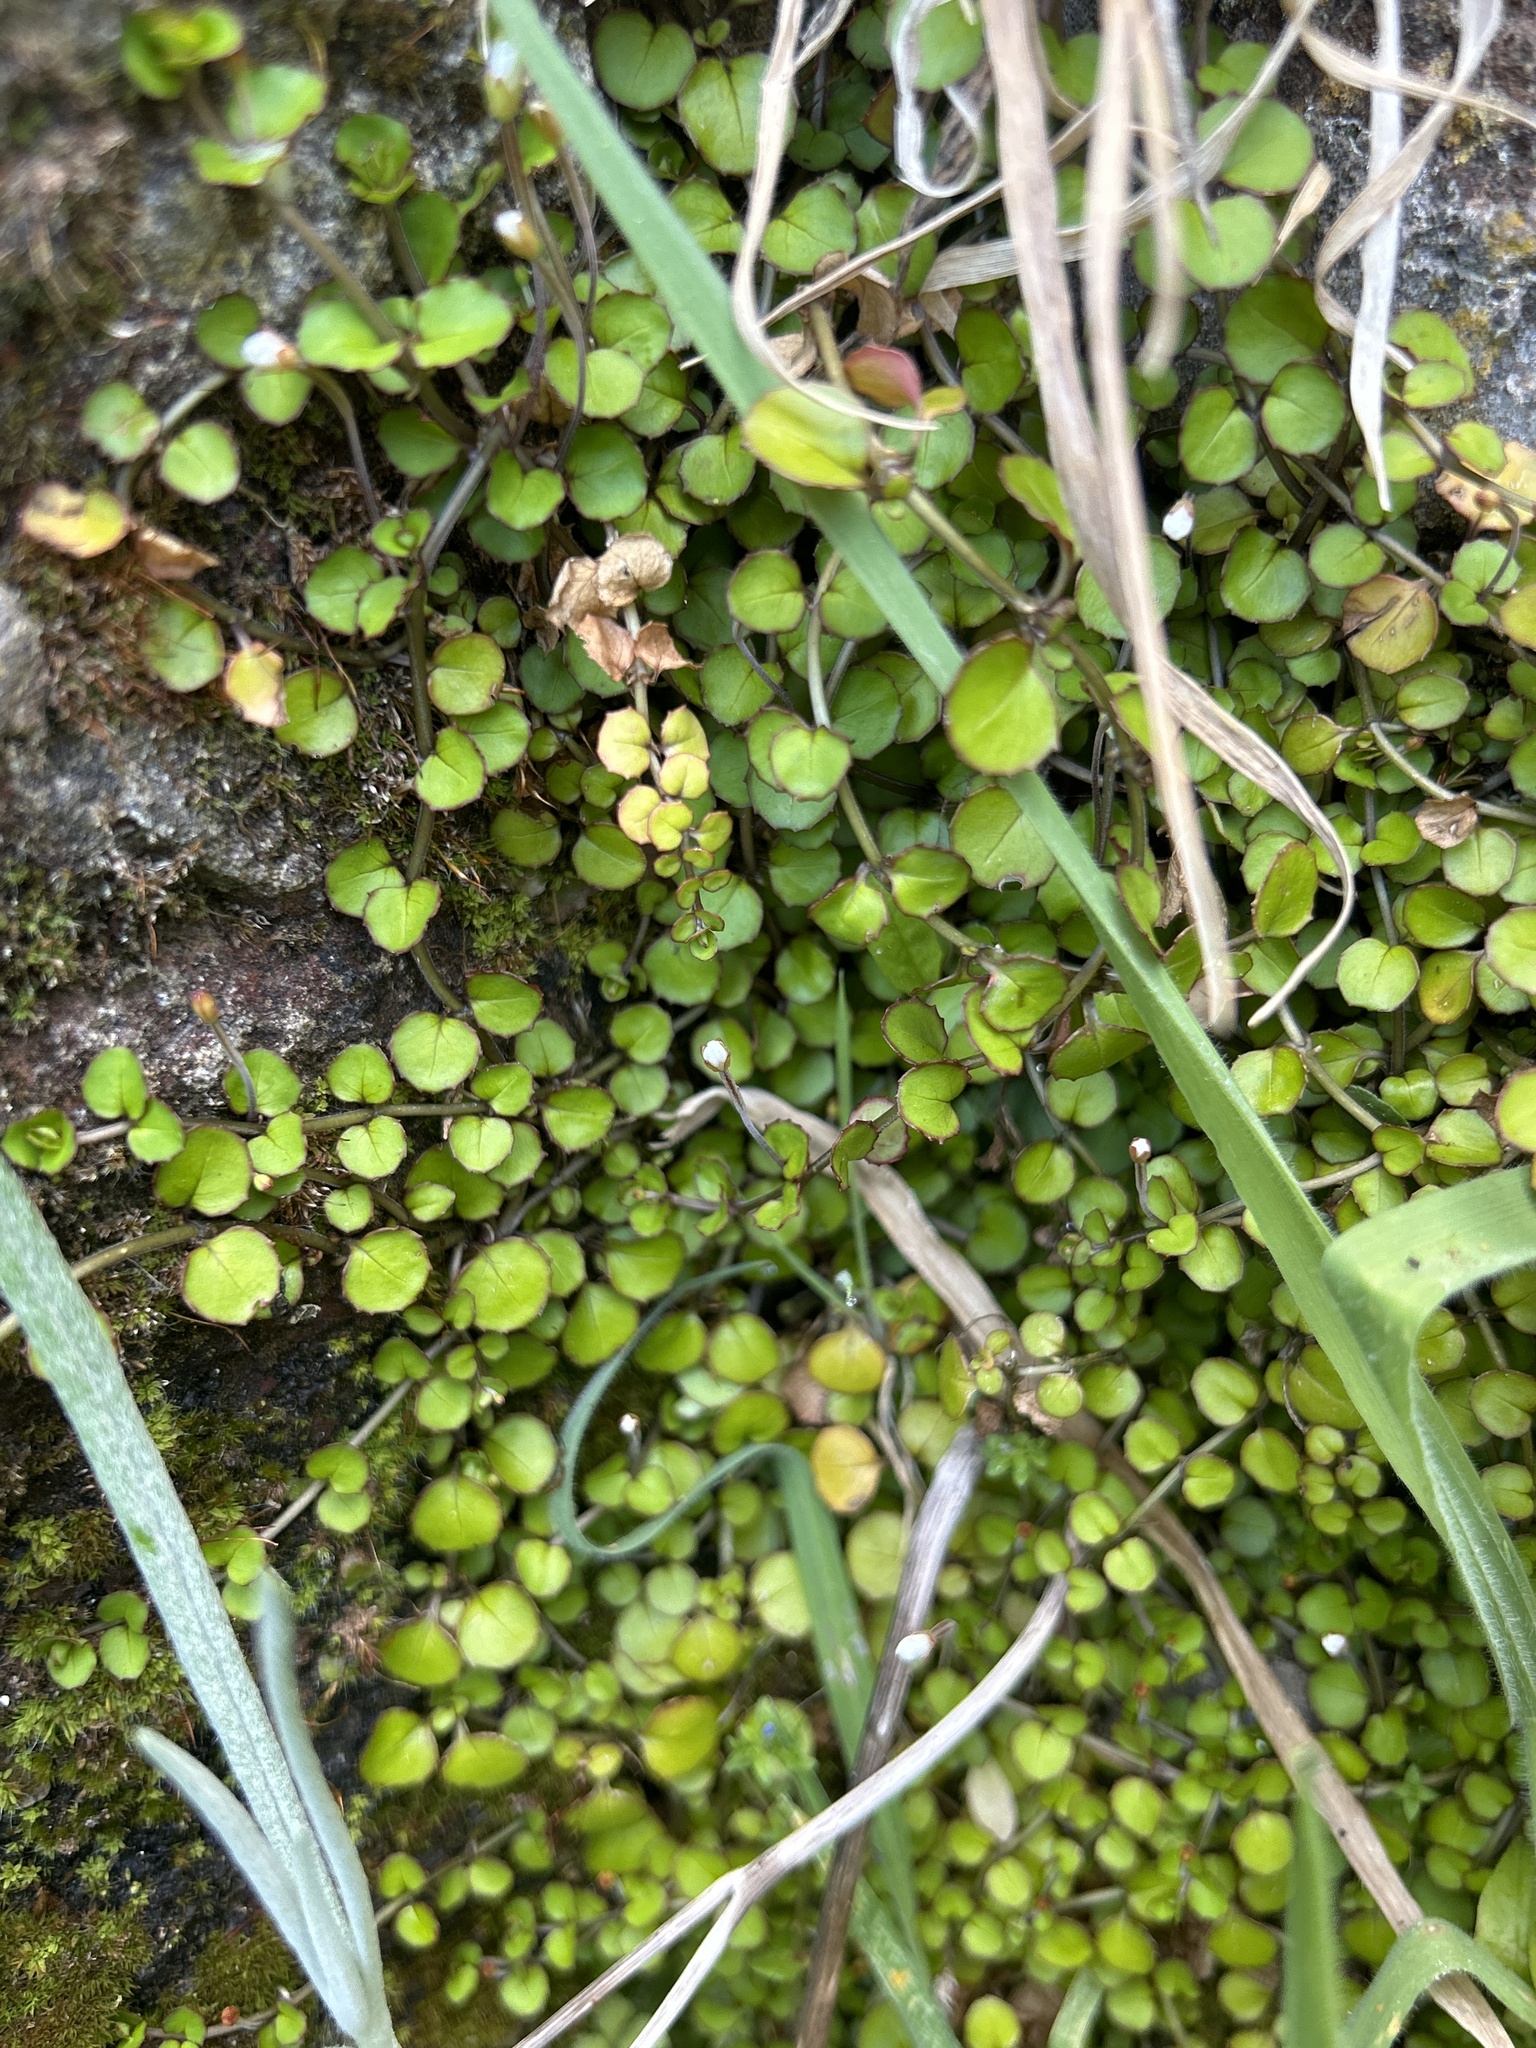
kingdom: Plantae
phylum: Tracheophyta
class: Magnoliopsida
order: Myrtales
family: Onagraceae
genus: Epilobium
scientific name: Epilobium nummularifolium
